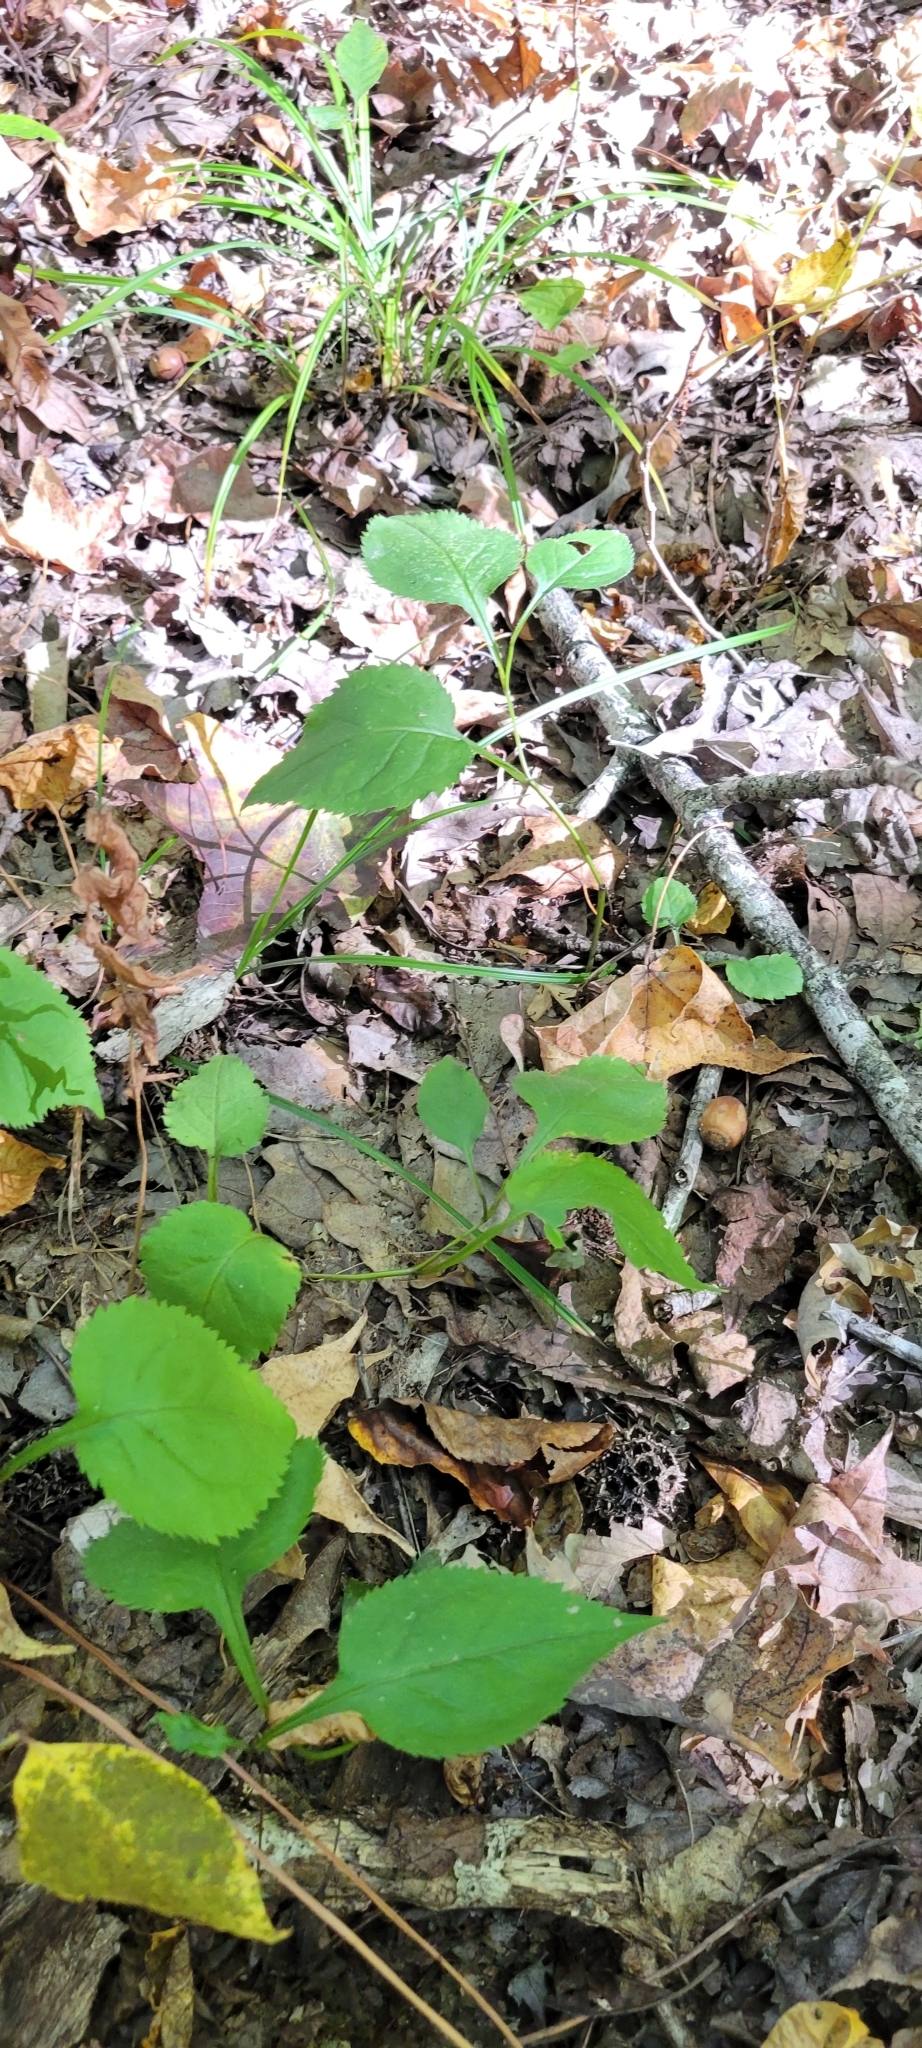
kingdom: Plantae
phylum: Tracheophyta
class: Magnoliopsida
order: Asterales
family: Asteraceae
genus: Solidago
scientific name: Solidago flexicaulis
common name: Zig-zag goldenrod
